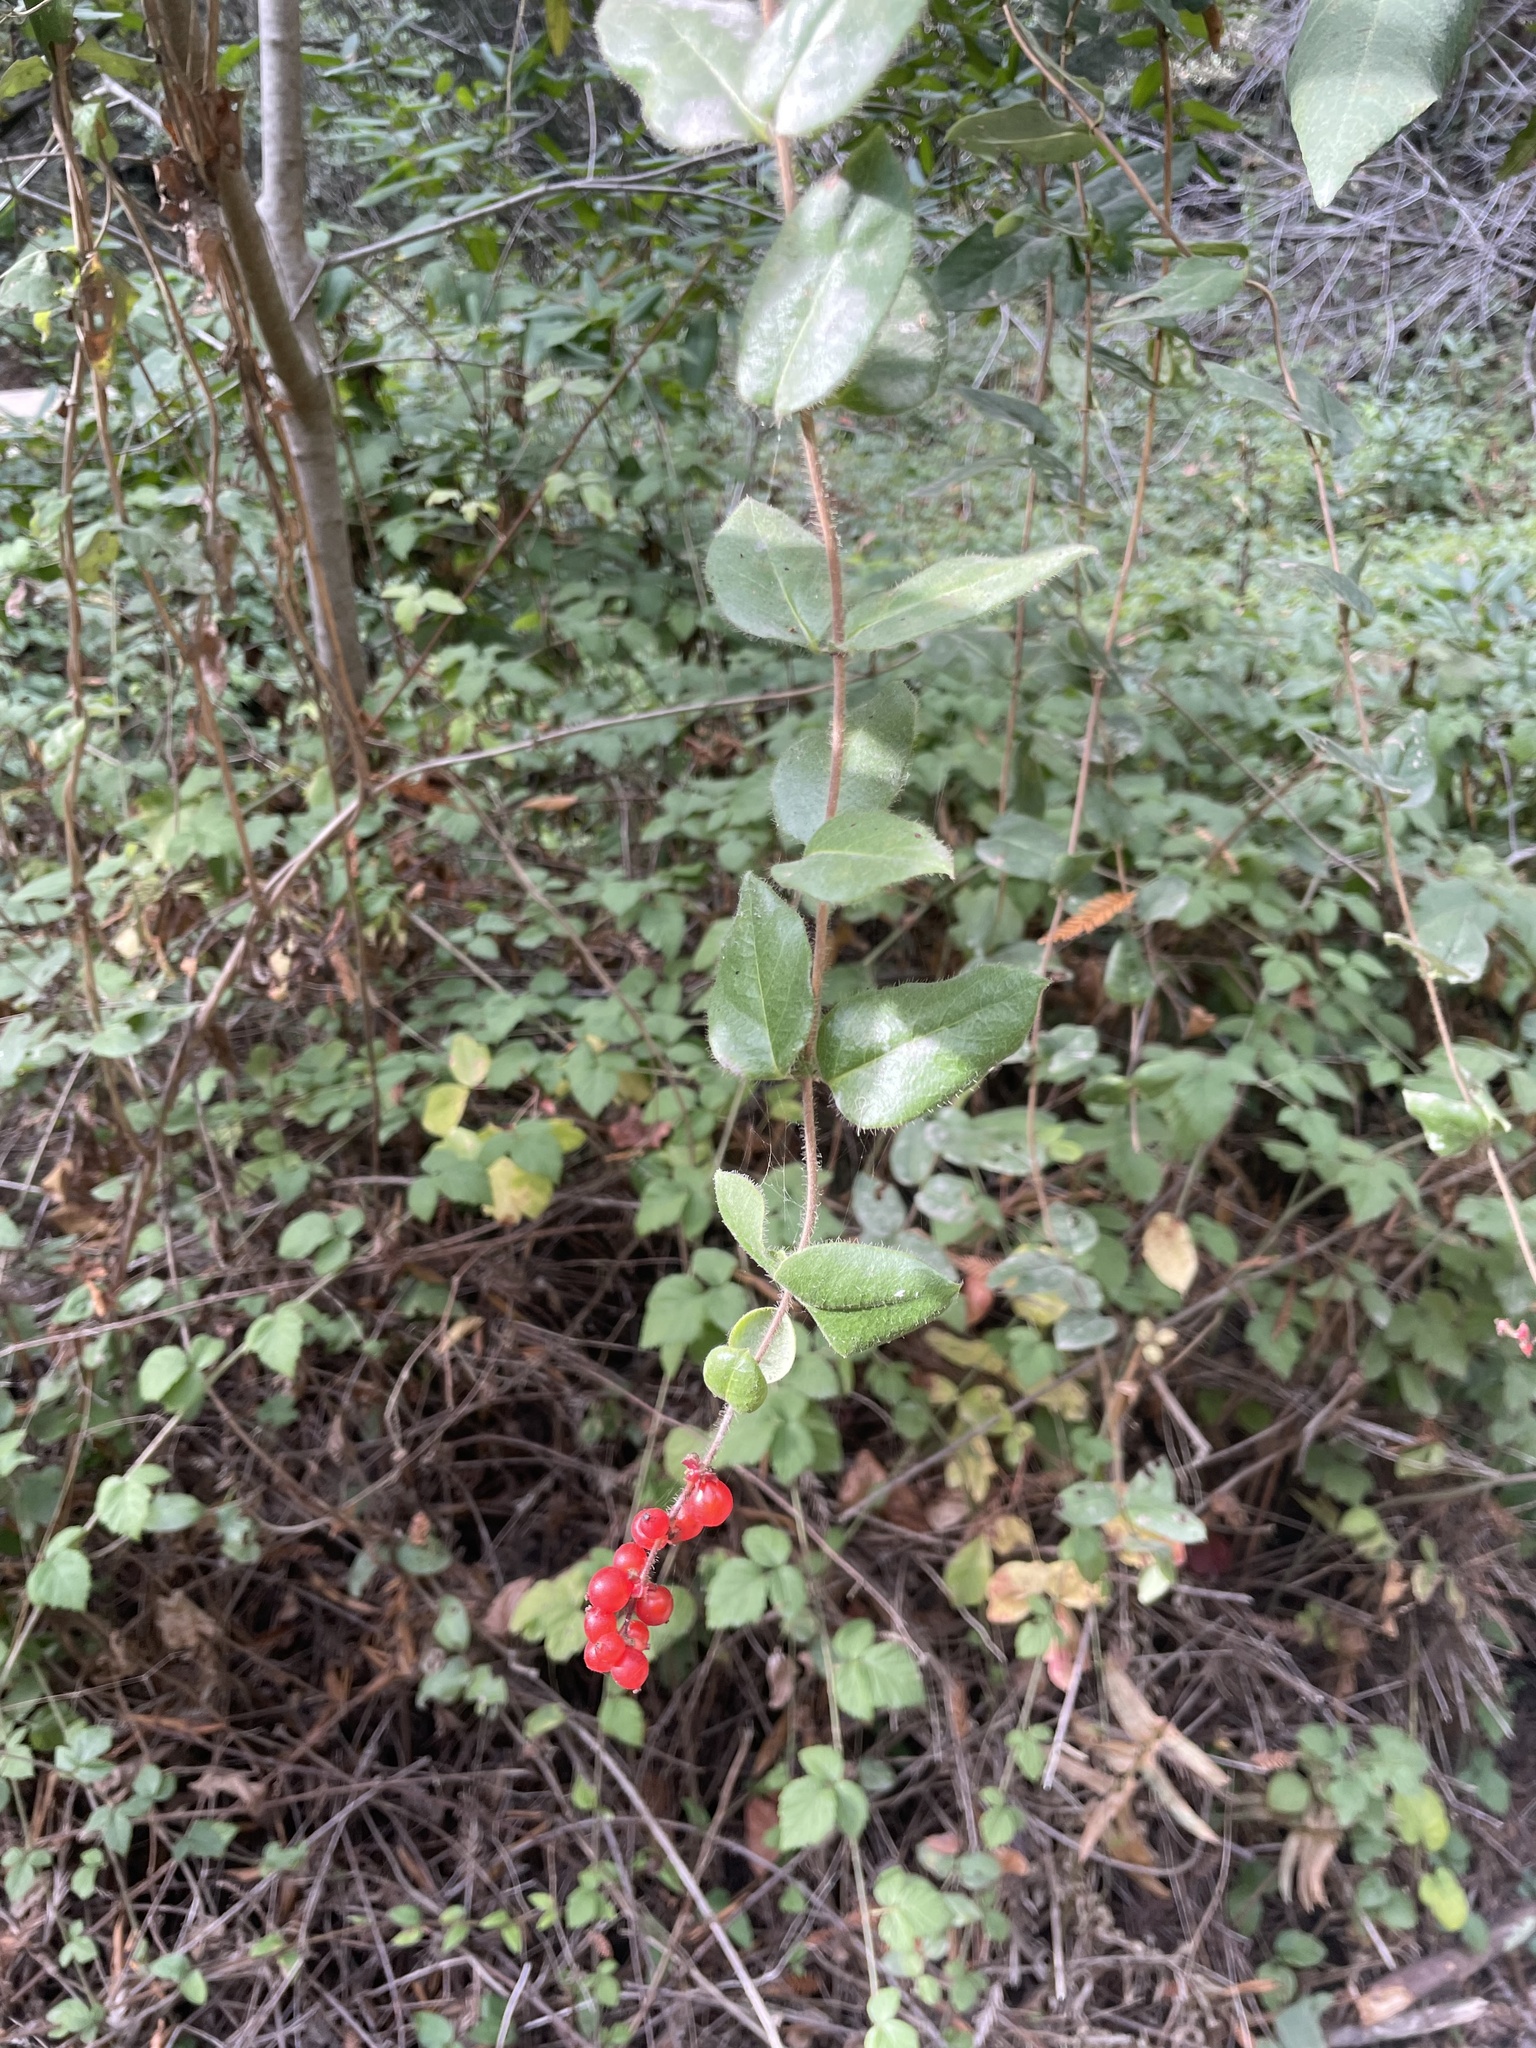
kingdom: Plantae
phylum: Tracheophyta
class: Magnoliopsida
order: Dipsacales
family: Caprifoliaceae
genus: Lonicera
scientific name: Lonicera hispidula
